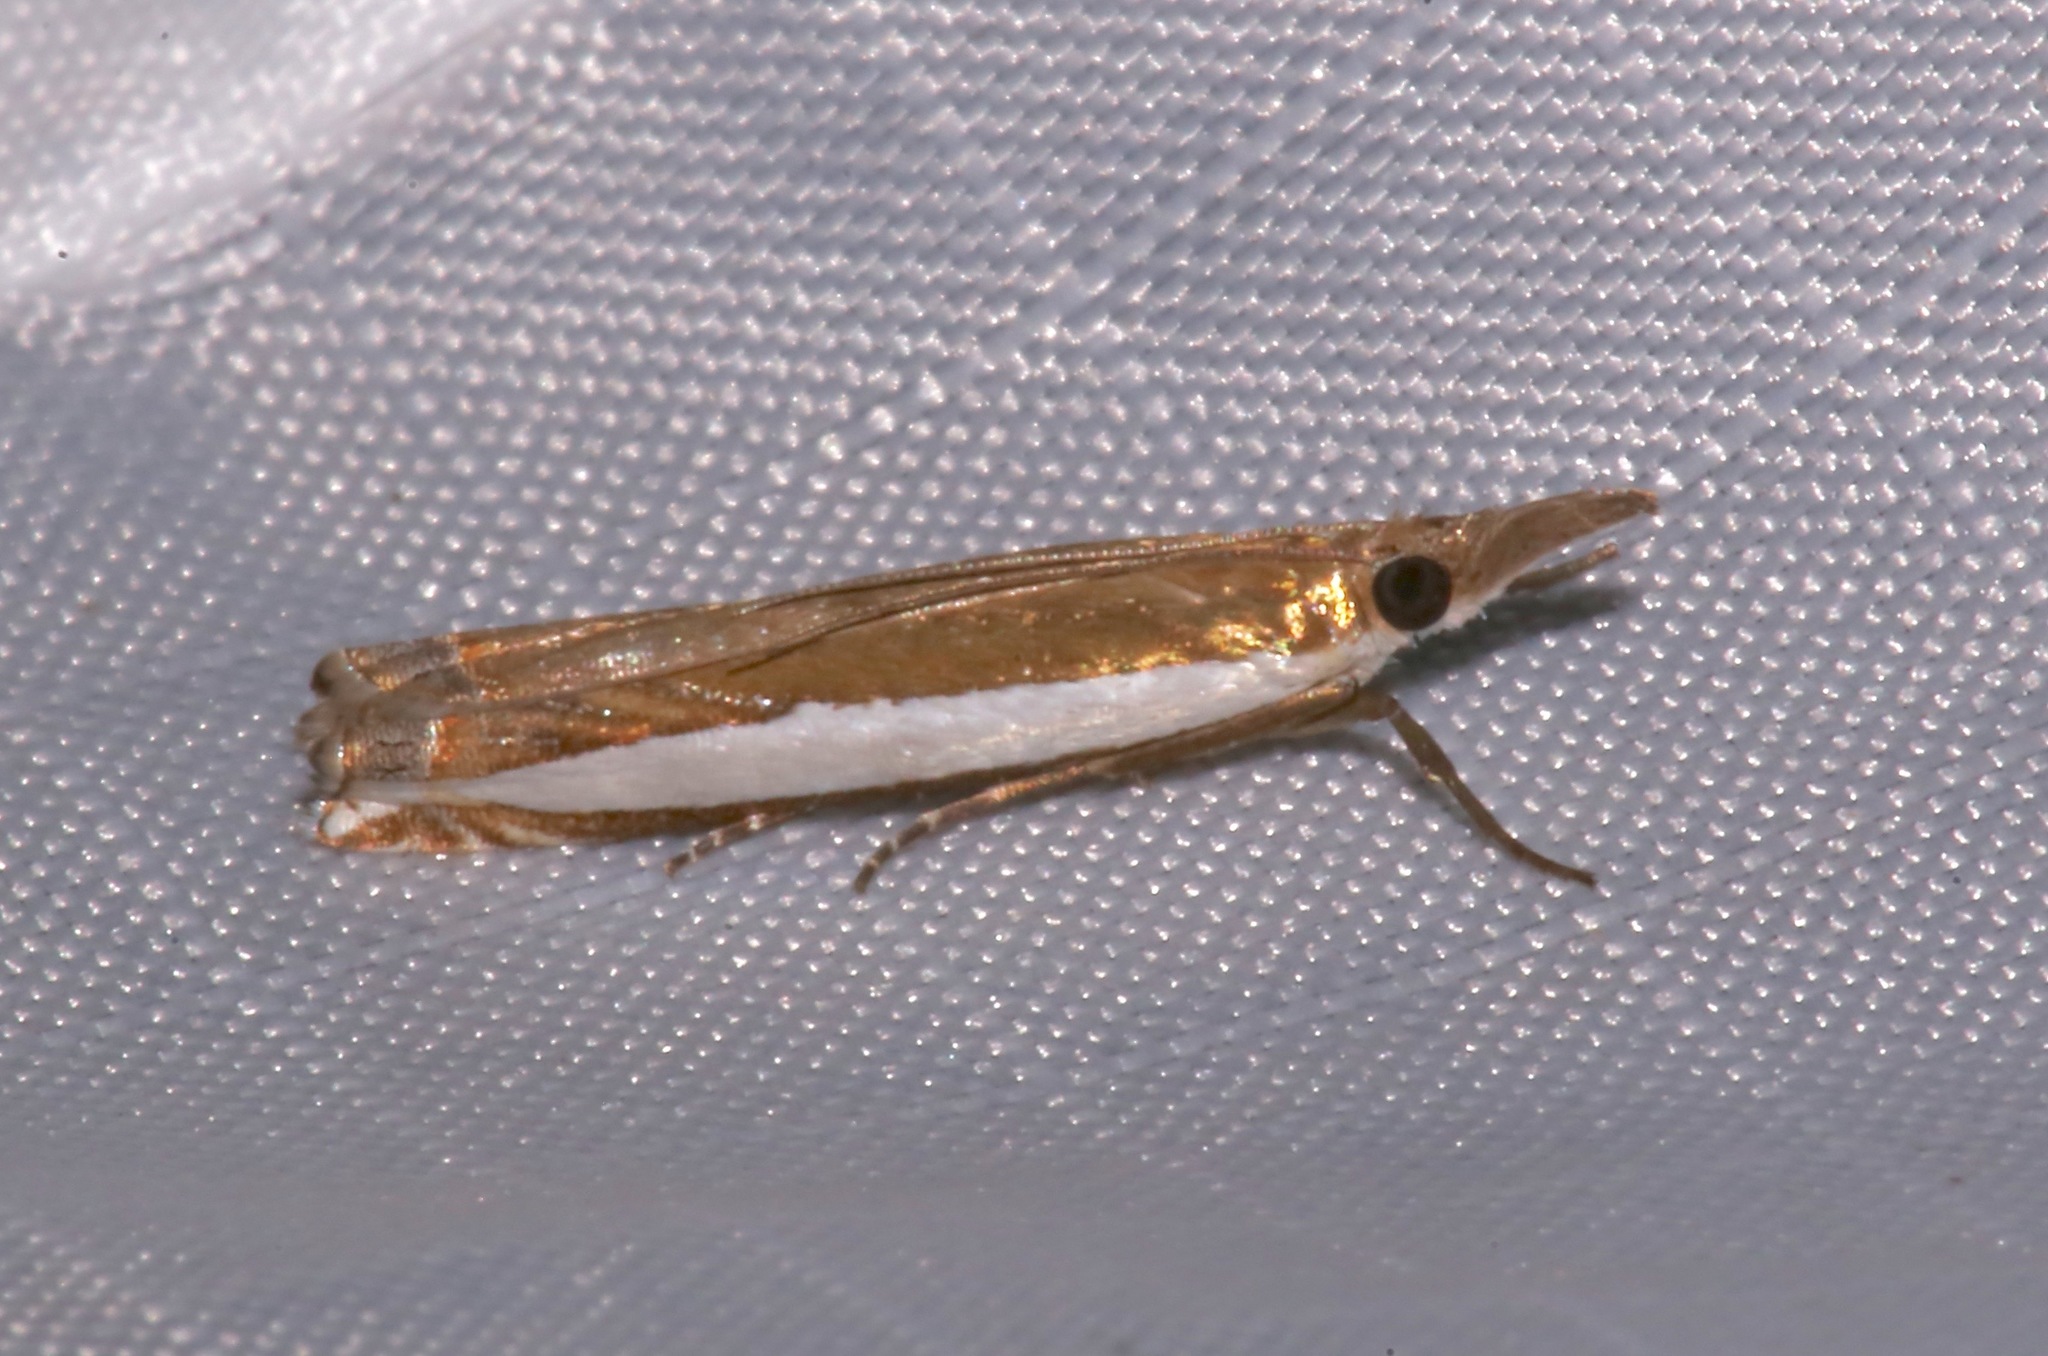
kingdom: Animalia
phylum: Arthropoda
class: Insecta
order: Lepidoptera
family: Crambidae
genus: Crambus
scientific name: Crambus quinquareatus
